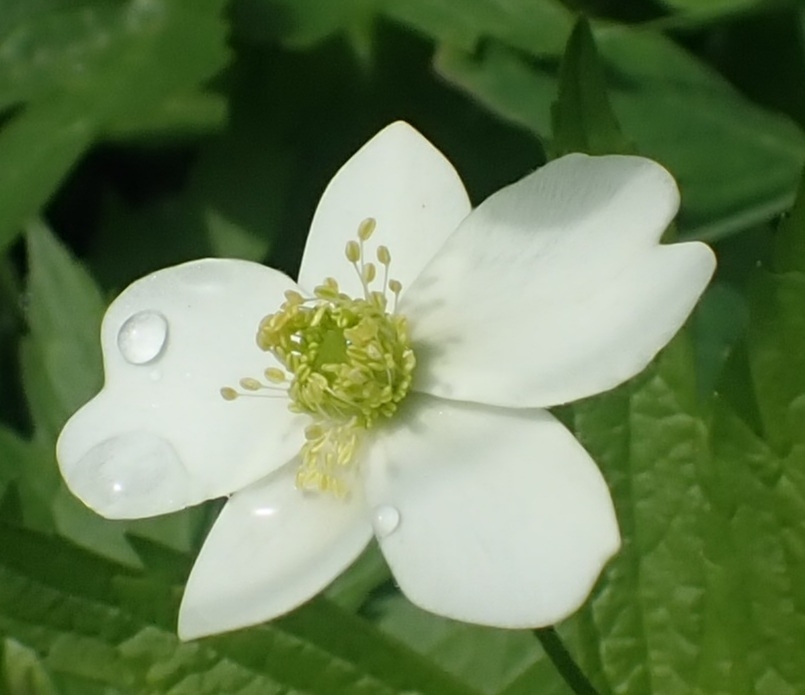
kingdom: Plantae
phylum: Tracheophyta
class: Magnoliopsida
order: Ranunculales
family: Ranunculaceae
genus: Anemonastrum
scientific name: Anemonastrum canadense
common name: Canada anemone
